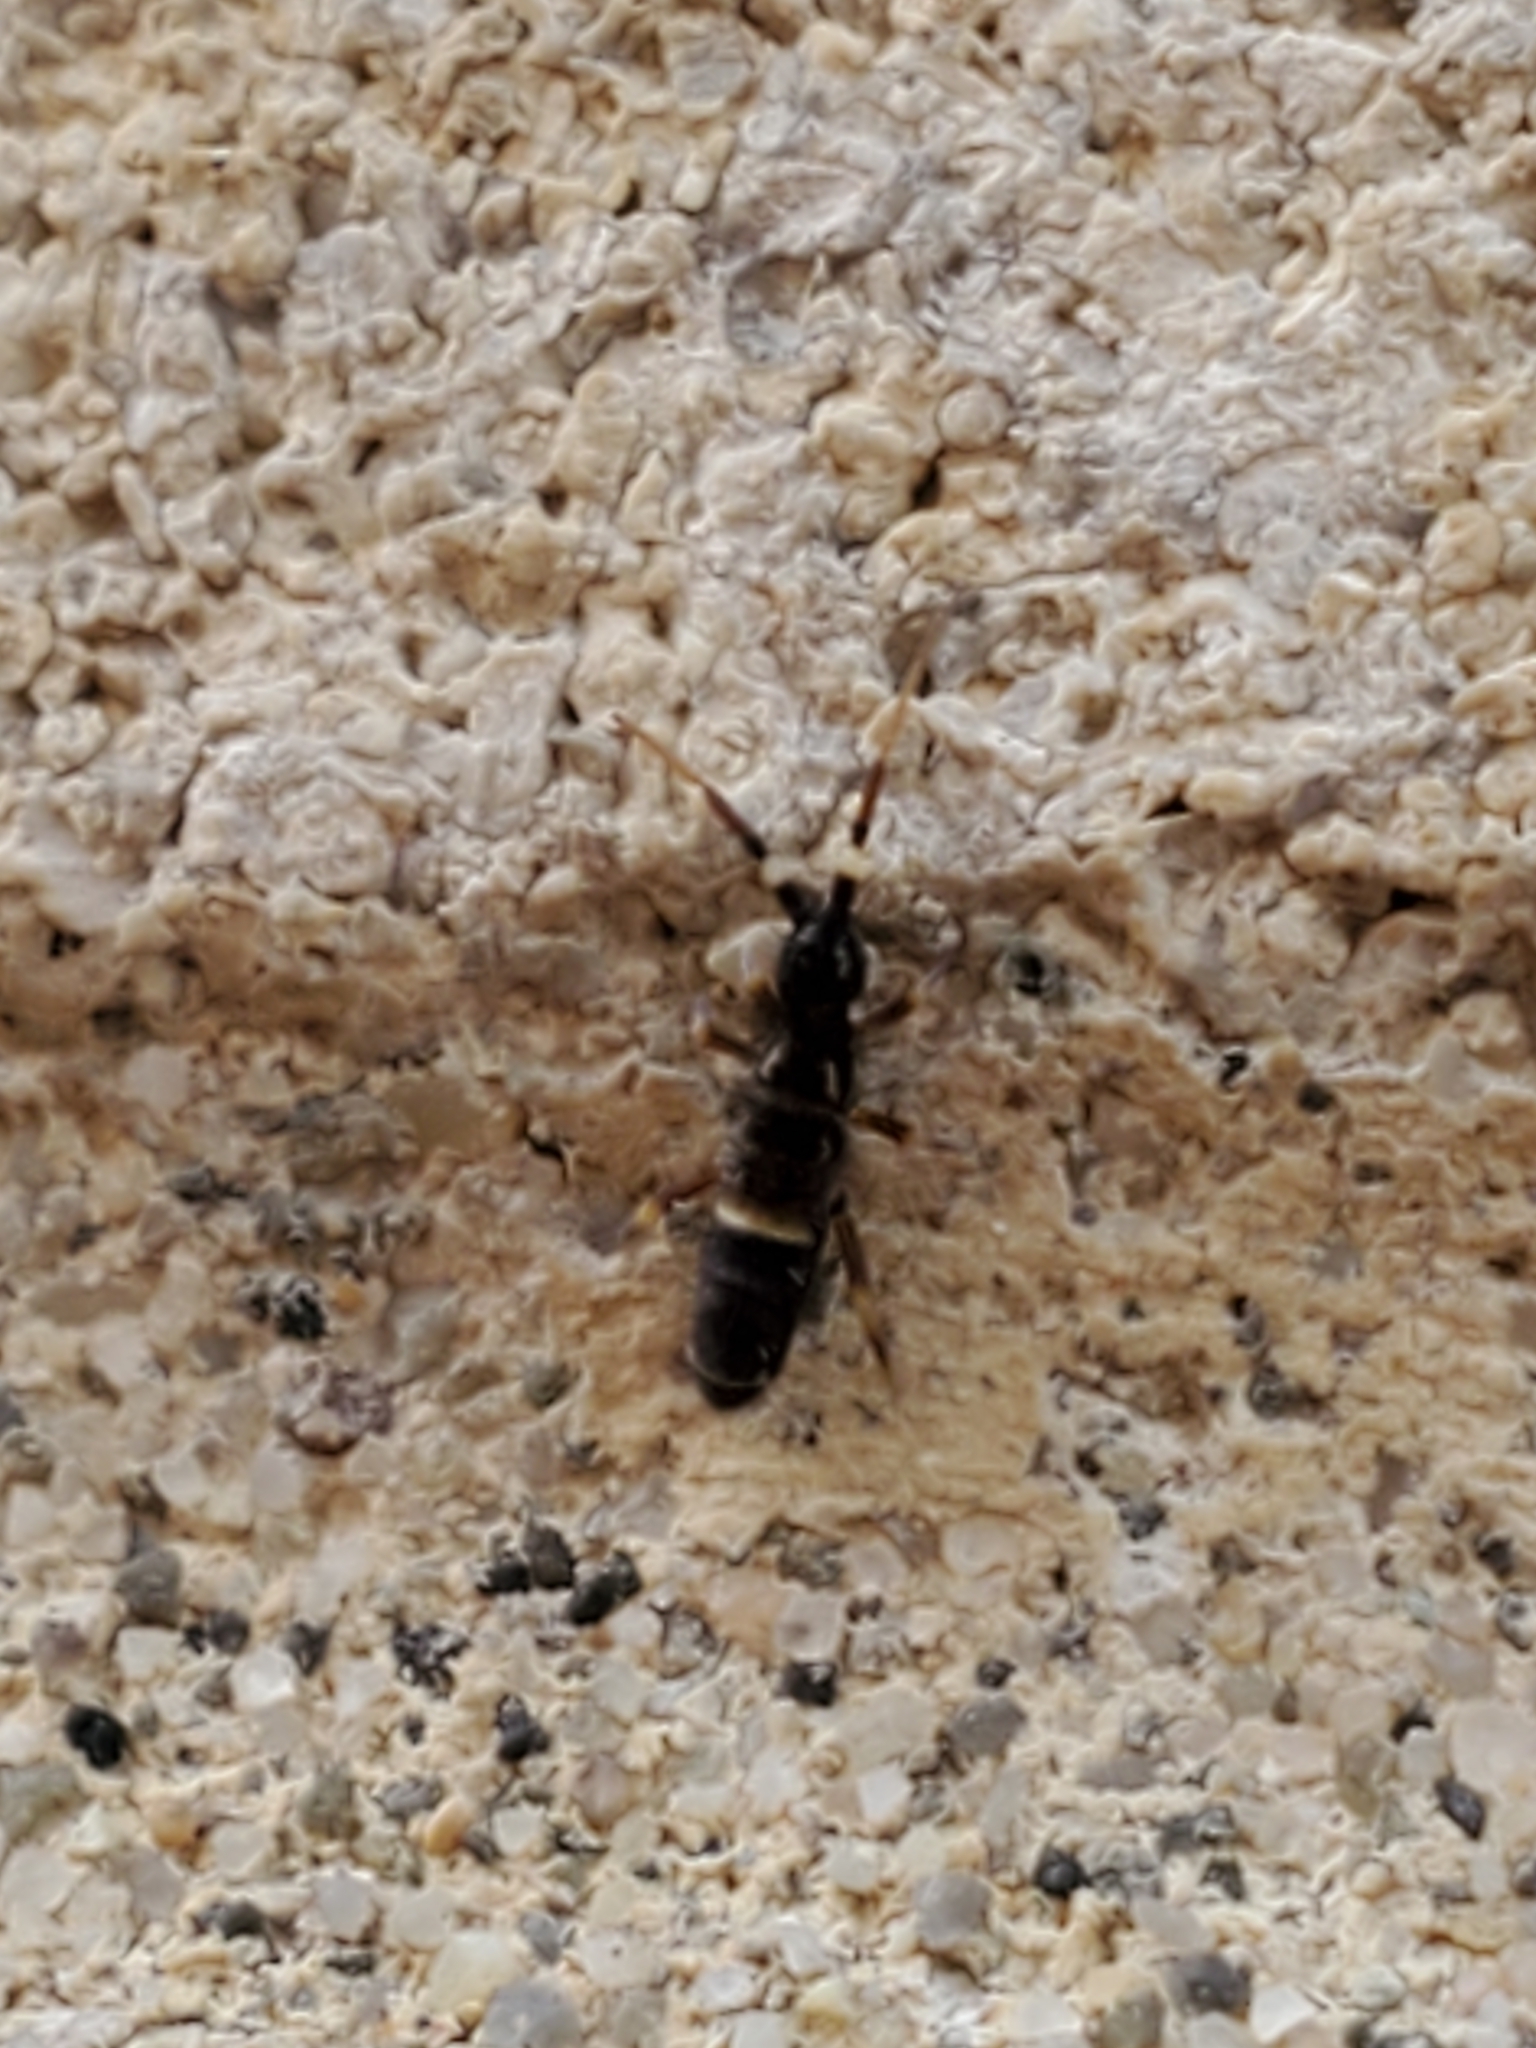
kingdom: Animalia
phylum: Arthropoda
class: Collembola
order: Entomobryomorpha
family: Orchesellidae
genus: Orchesella
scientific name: Orchesella cincta
